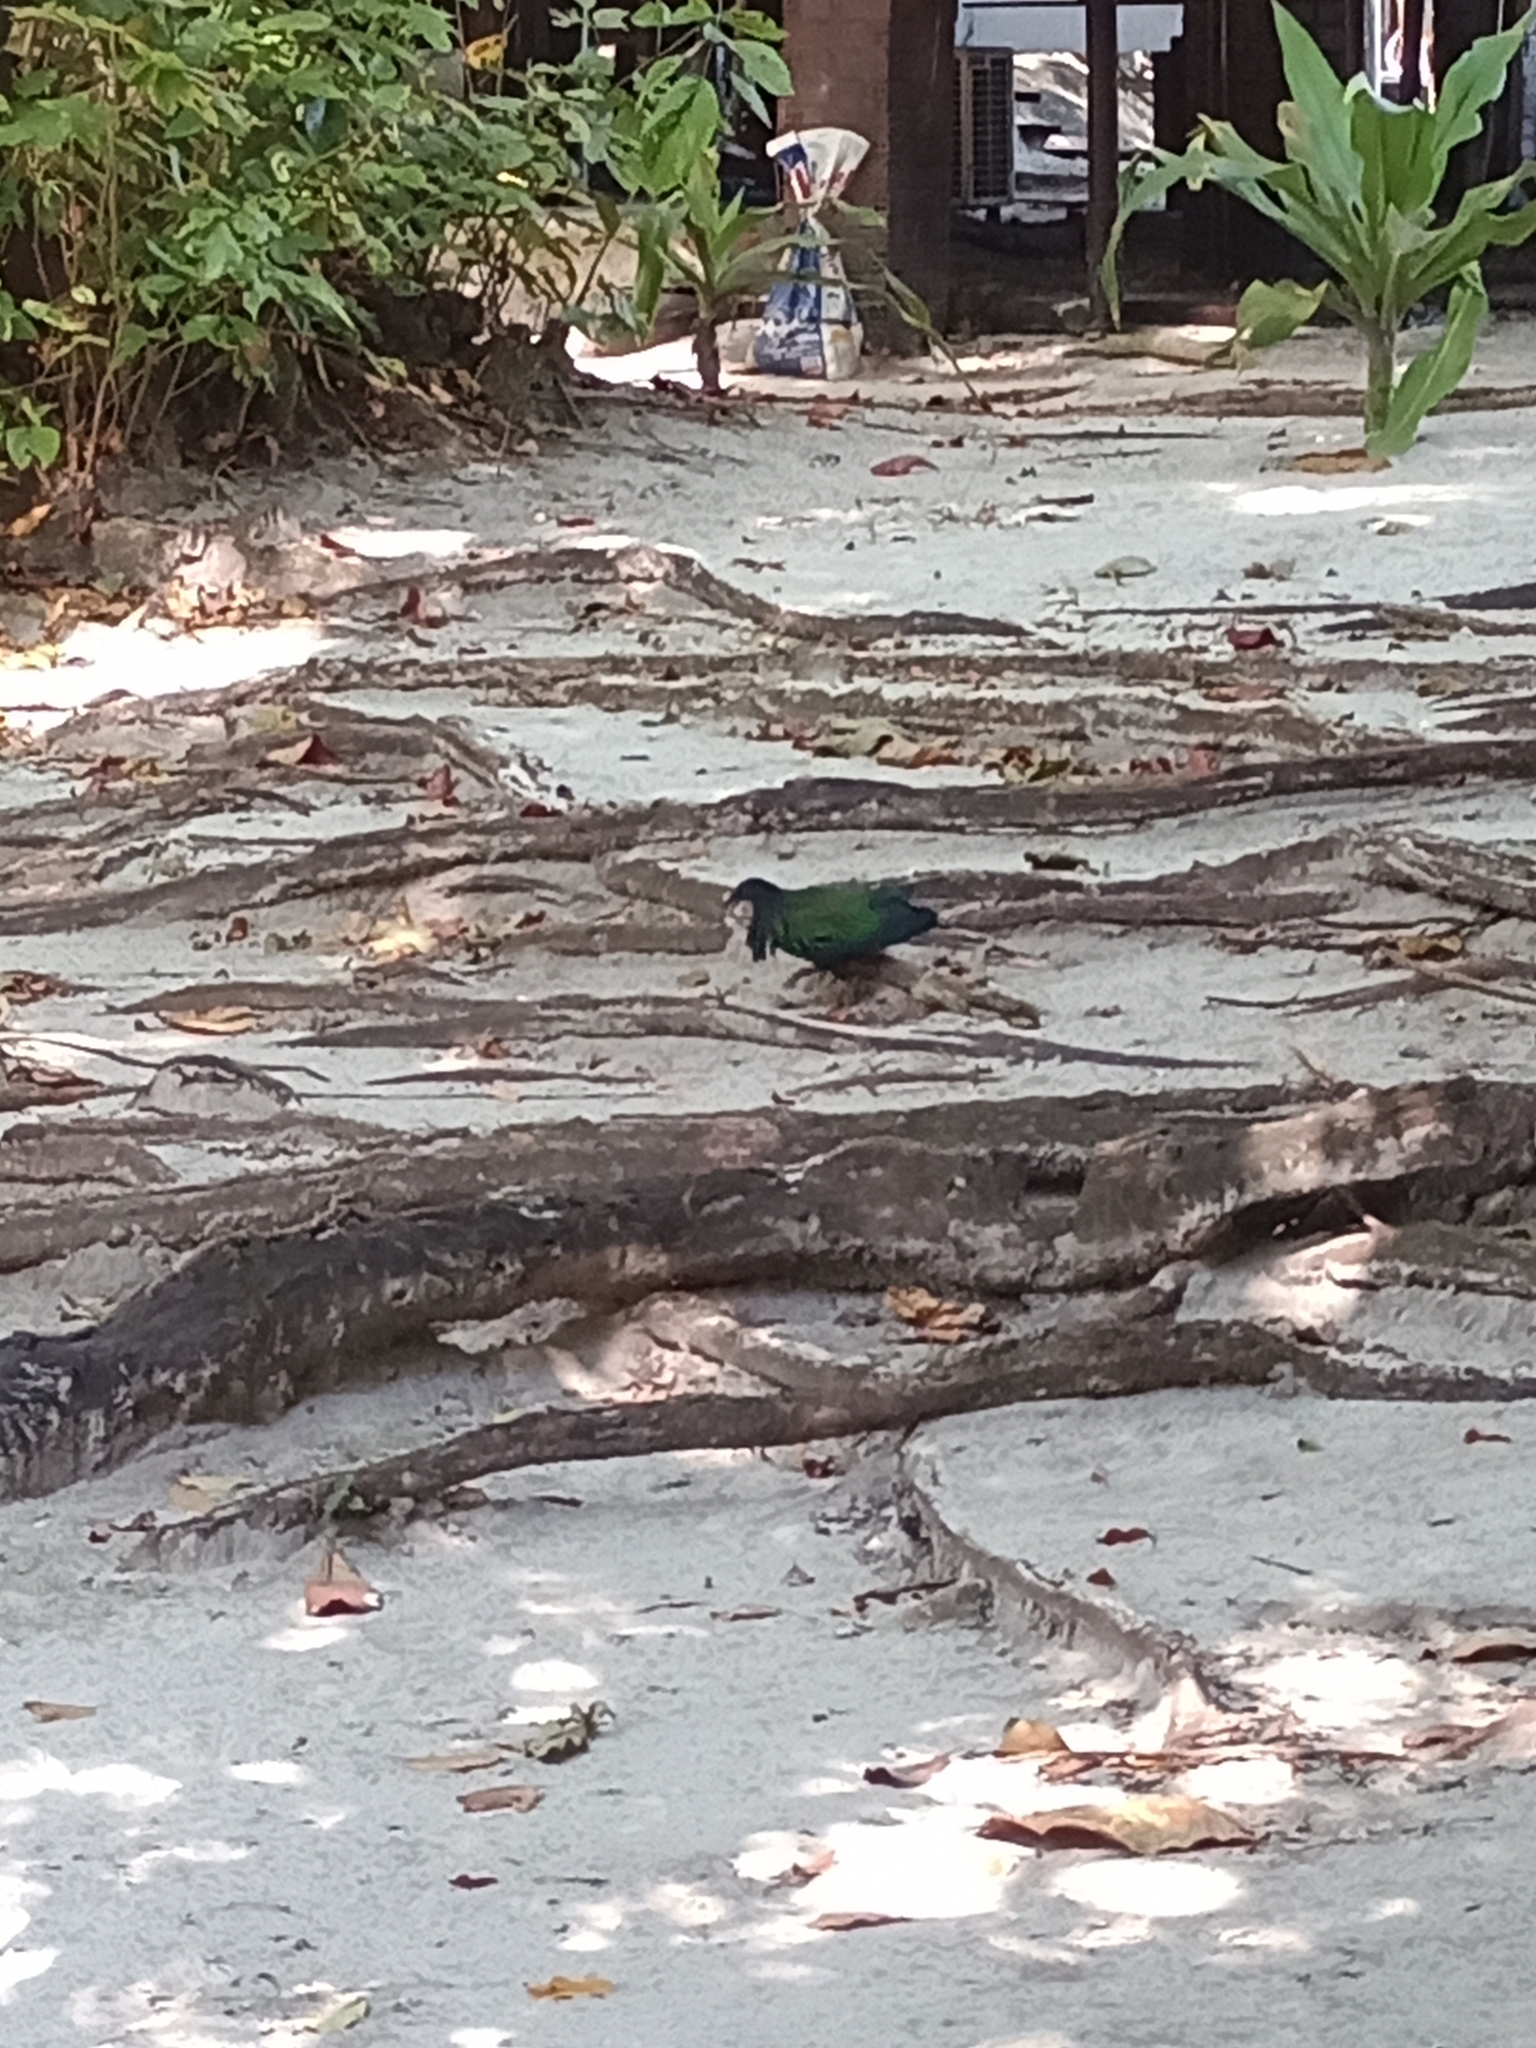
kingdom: Animalia
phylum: Chordata
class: Aves
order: Columbiformes
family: Columbidae
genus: Caloenas
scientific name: Caloenas nicobarica
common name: Nicobar pigeon
